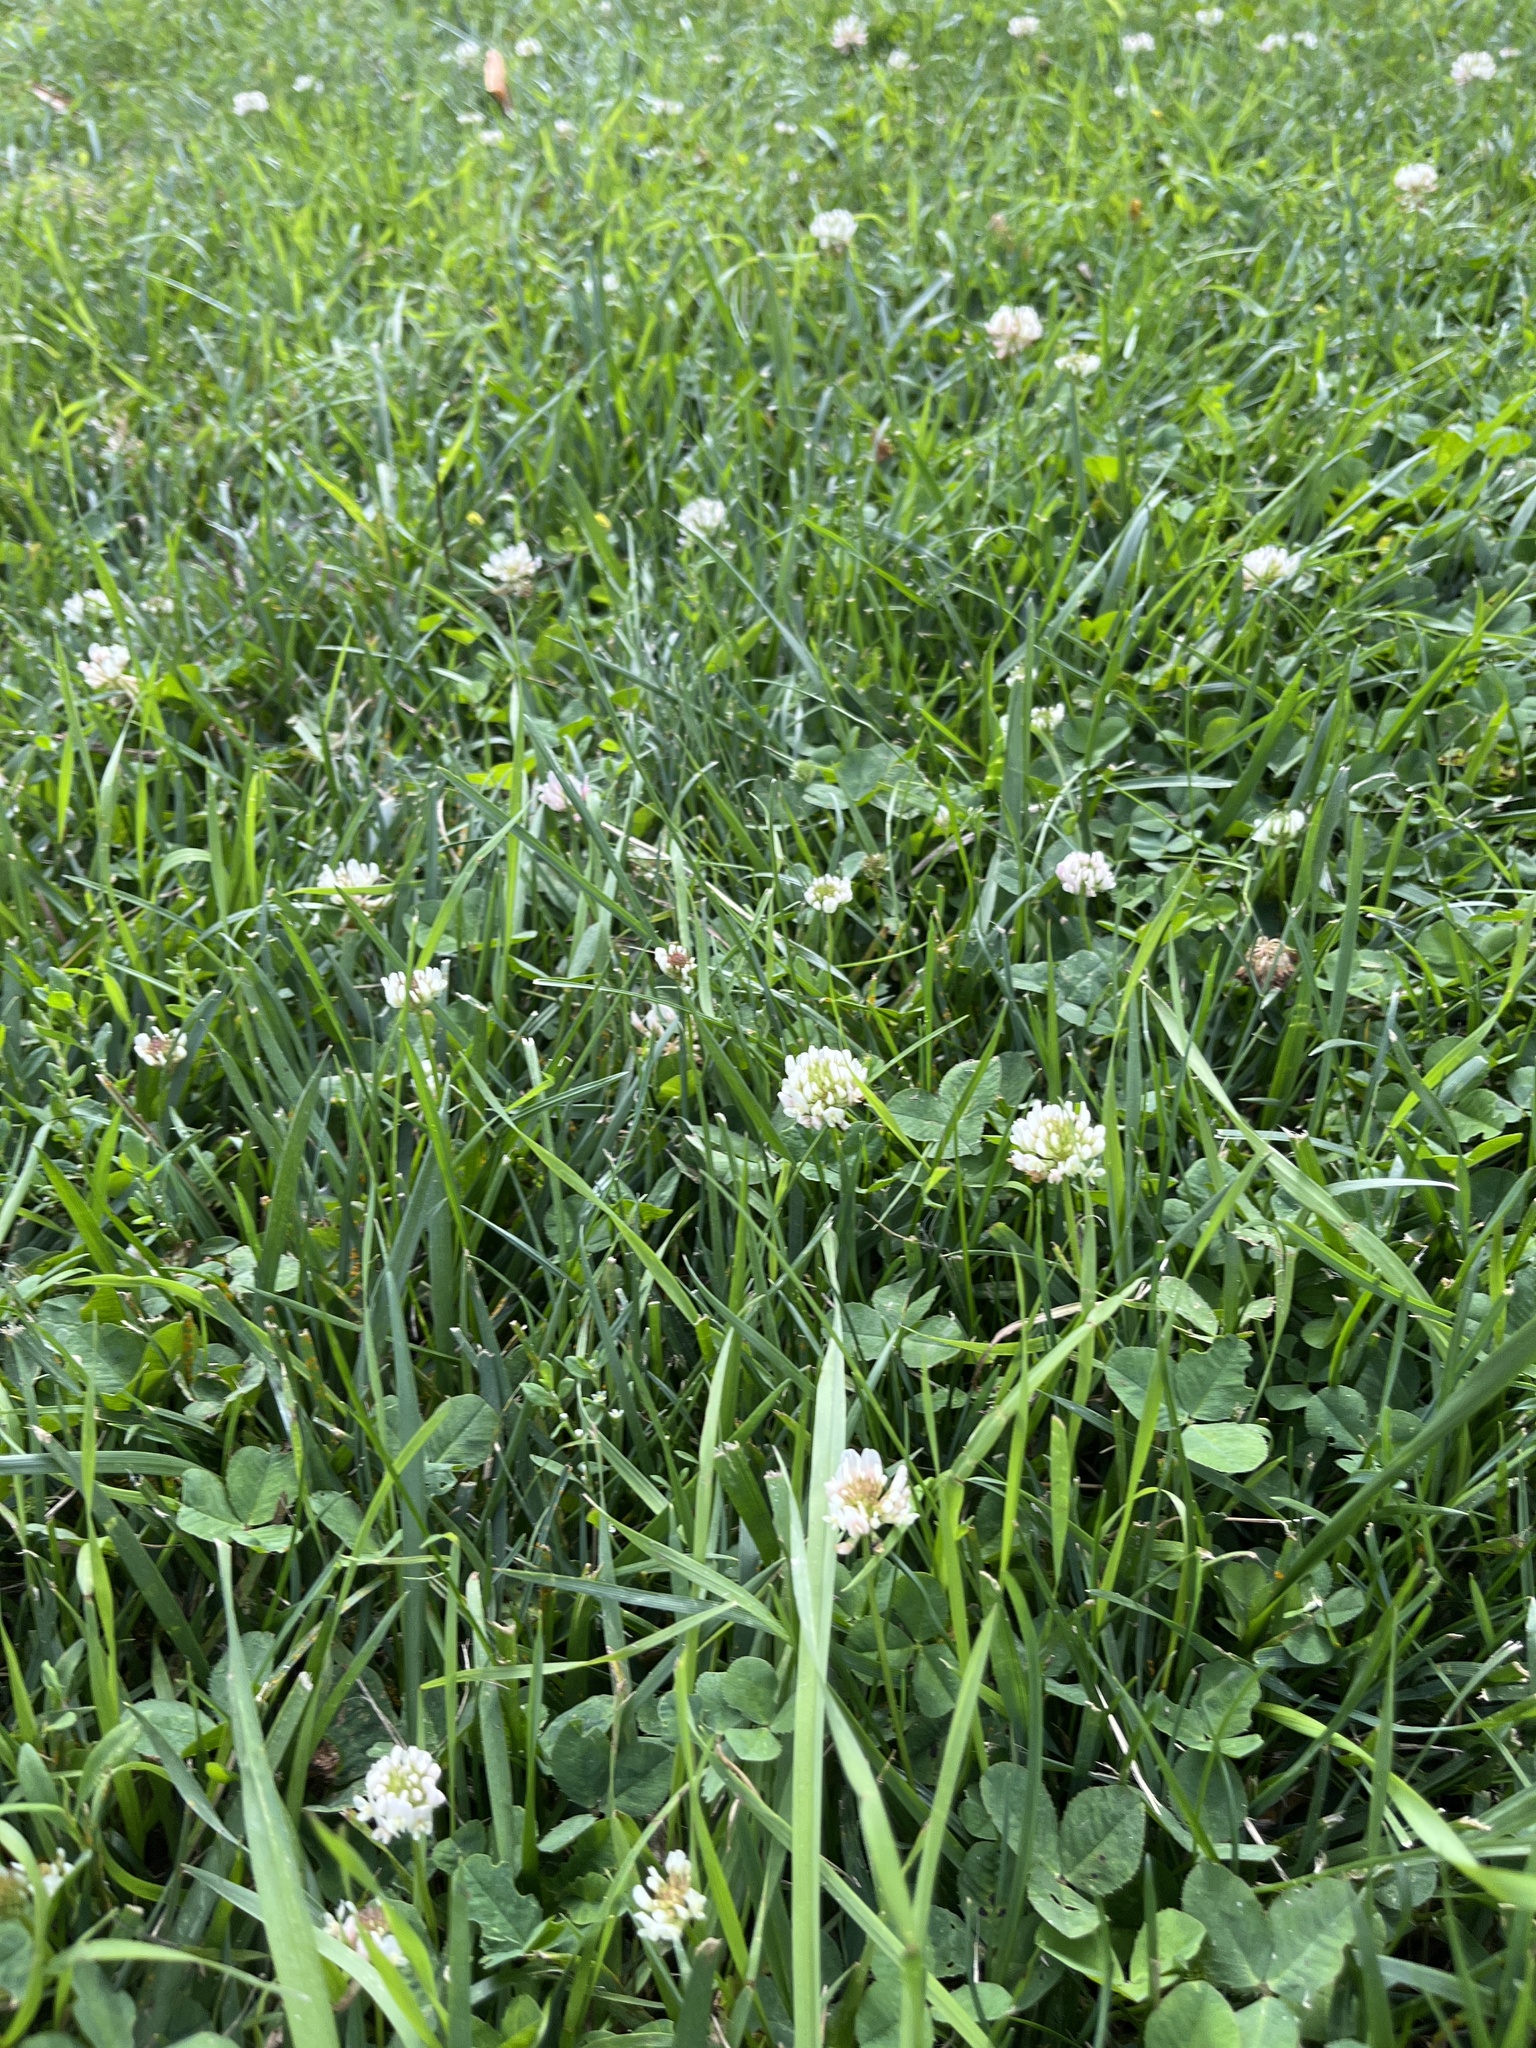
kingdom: Plantae
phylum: Tracheophyta
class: Magnoliopsida
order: Fabales
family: Fabaceae
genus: Trifolium
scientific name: Trifolium repens
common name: White clover
